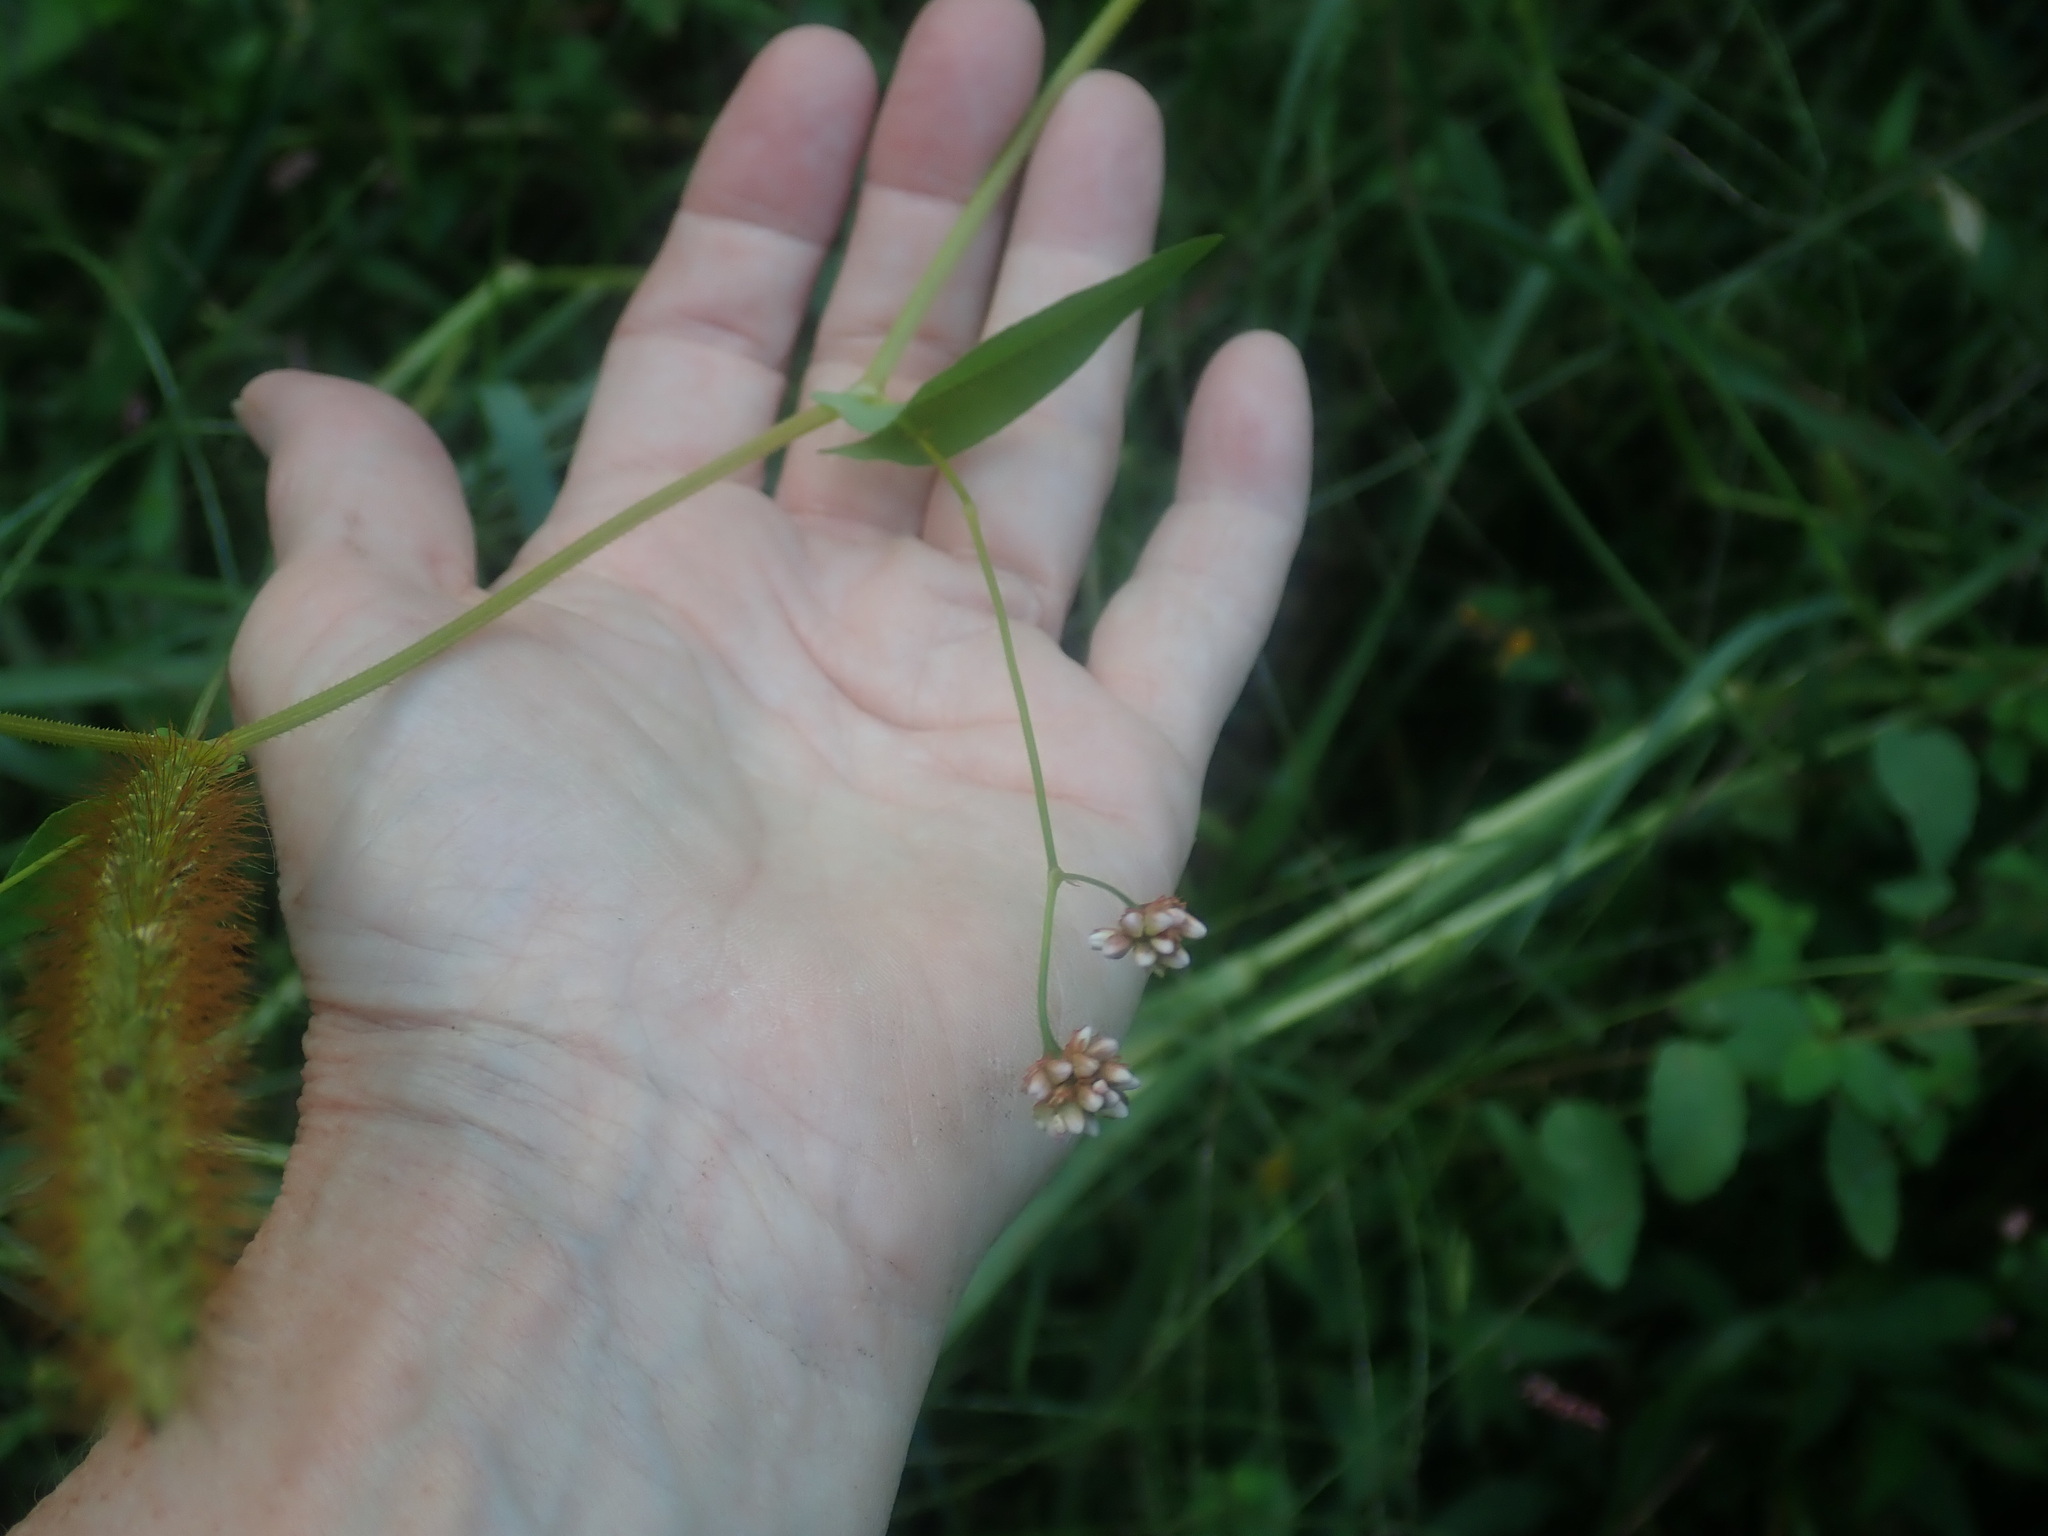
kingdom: Plantae
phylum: Tracheophyta
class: Magnoliopsida
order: Caryophyllales
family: Polygonaceae
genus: Persicaria
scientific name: Persicaria sagittata
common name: American tearthumb
